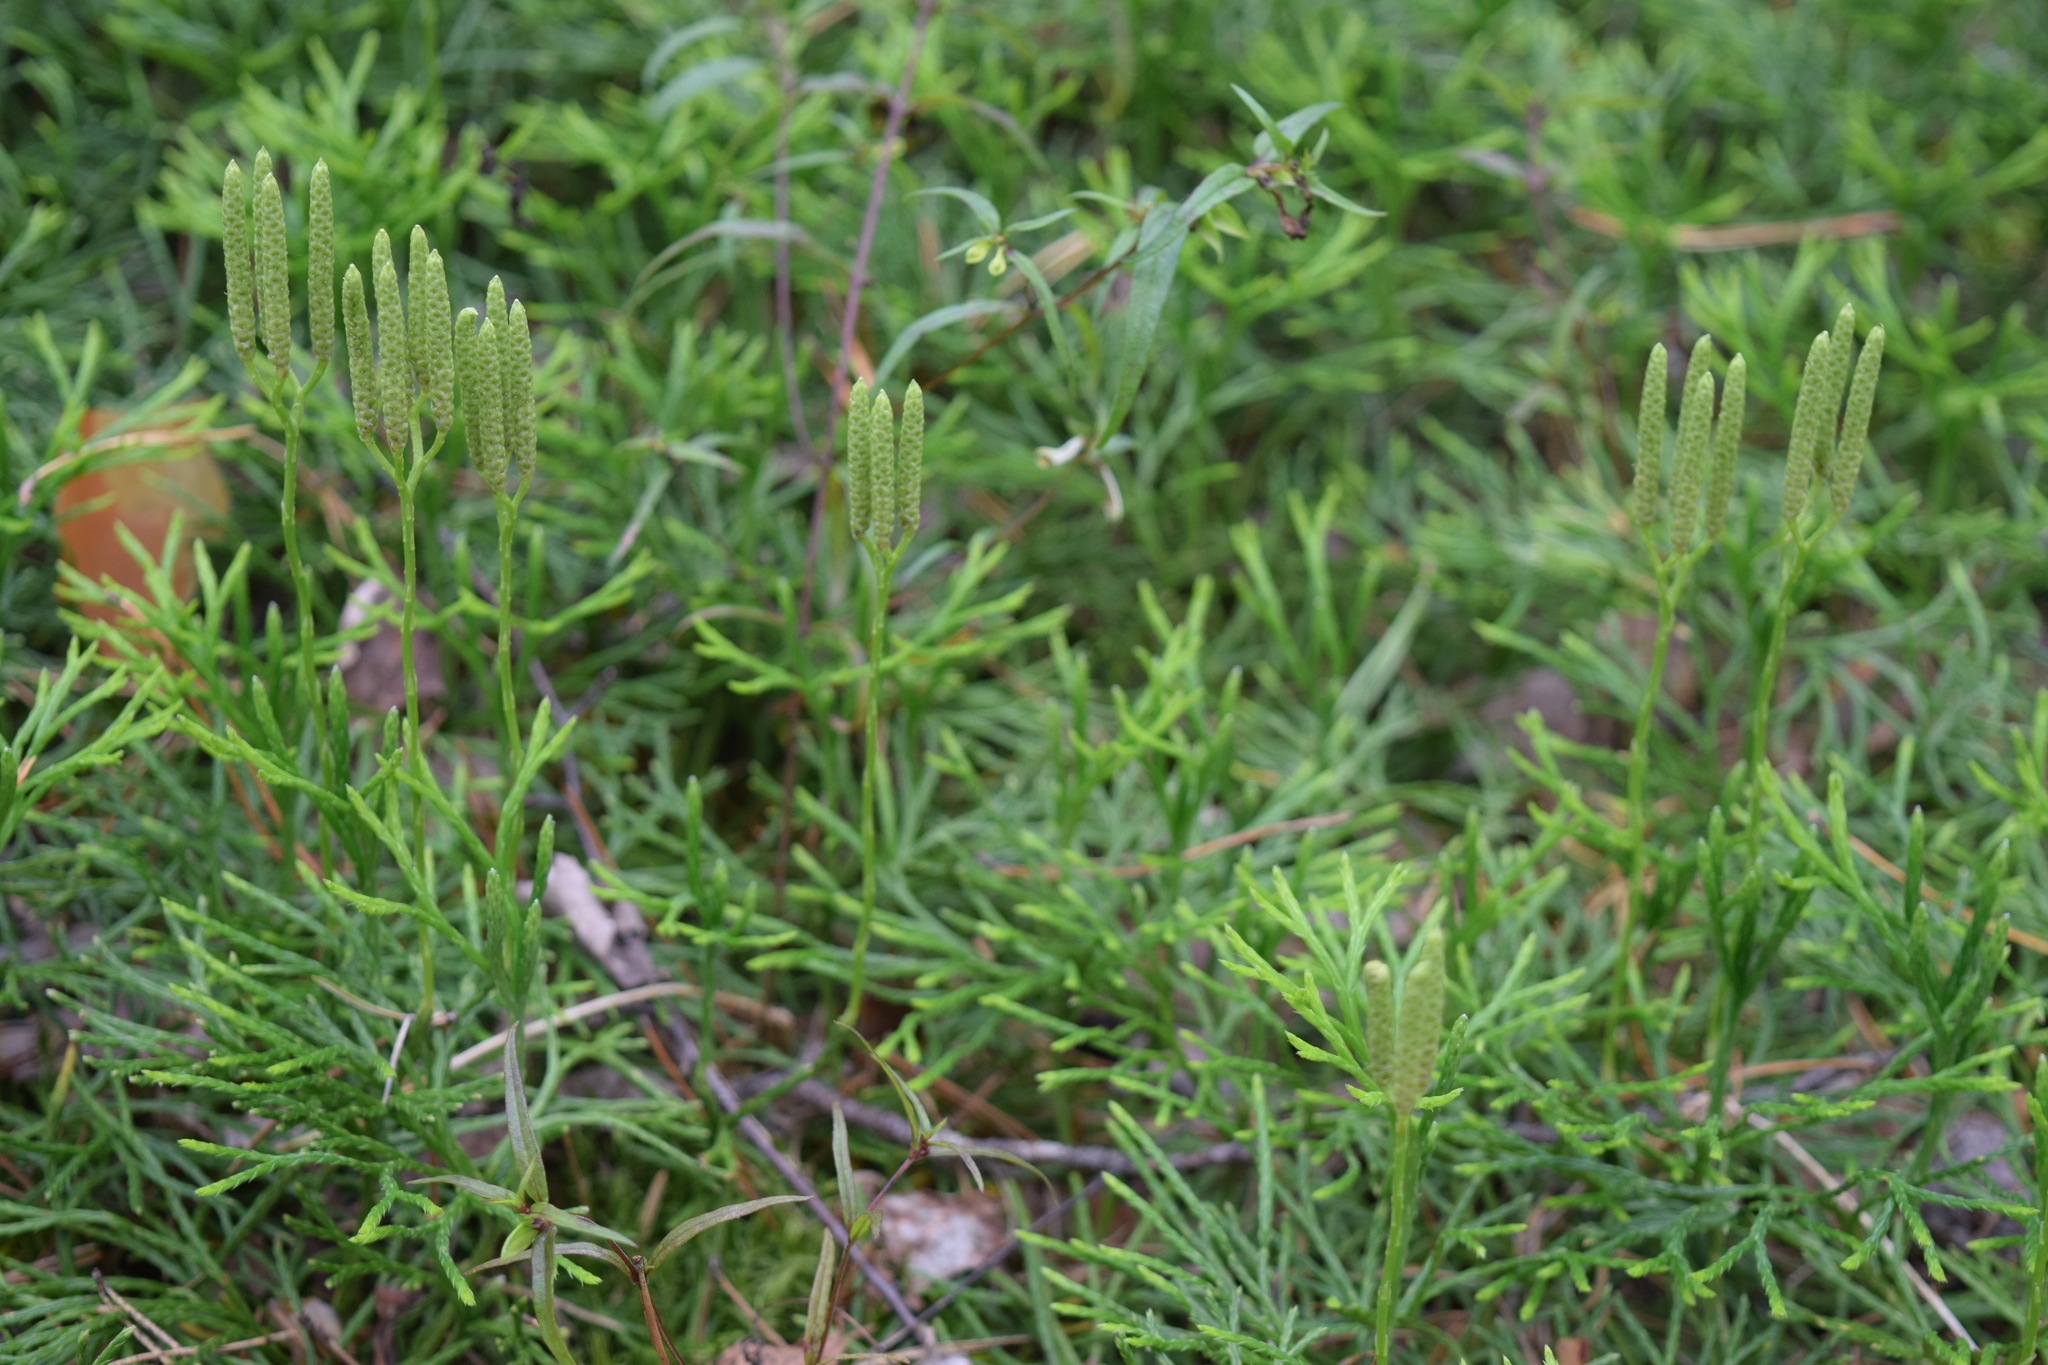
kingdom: Plantae
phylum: Tracheophyta
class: Lycopodiopsida
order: Lycopodiales
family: Lycopodiaceae
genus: Diphasiastrum
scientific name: Diphasiastrum complanatum
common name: Northern running-pine
